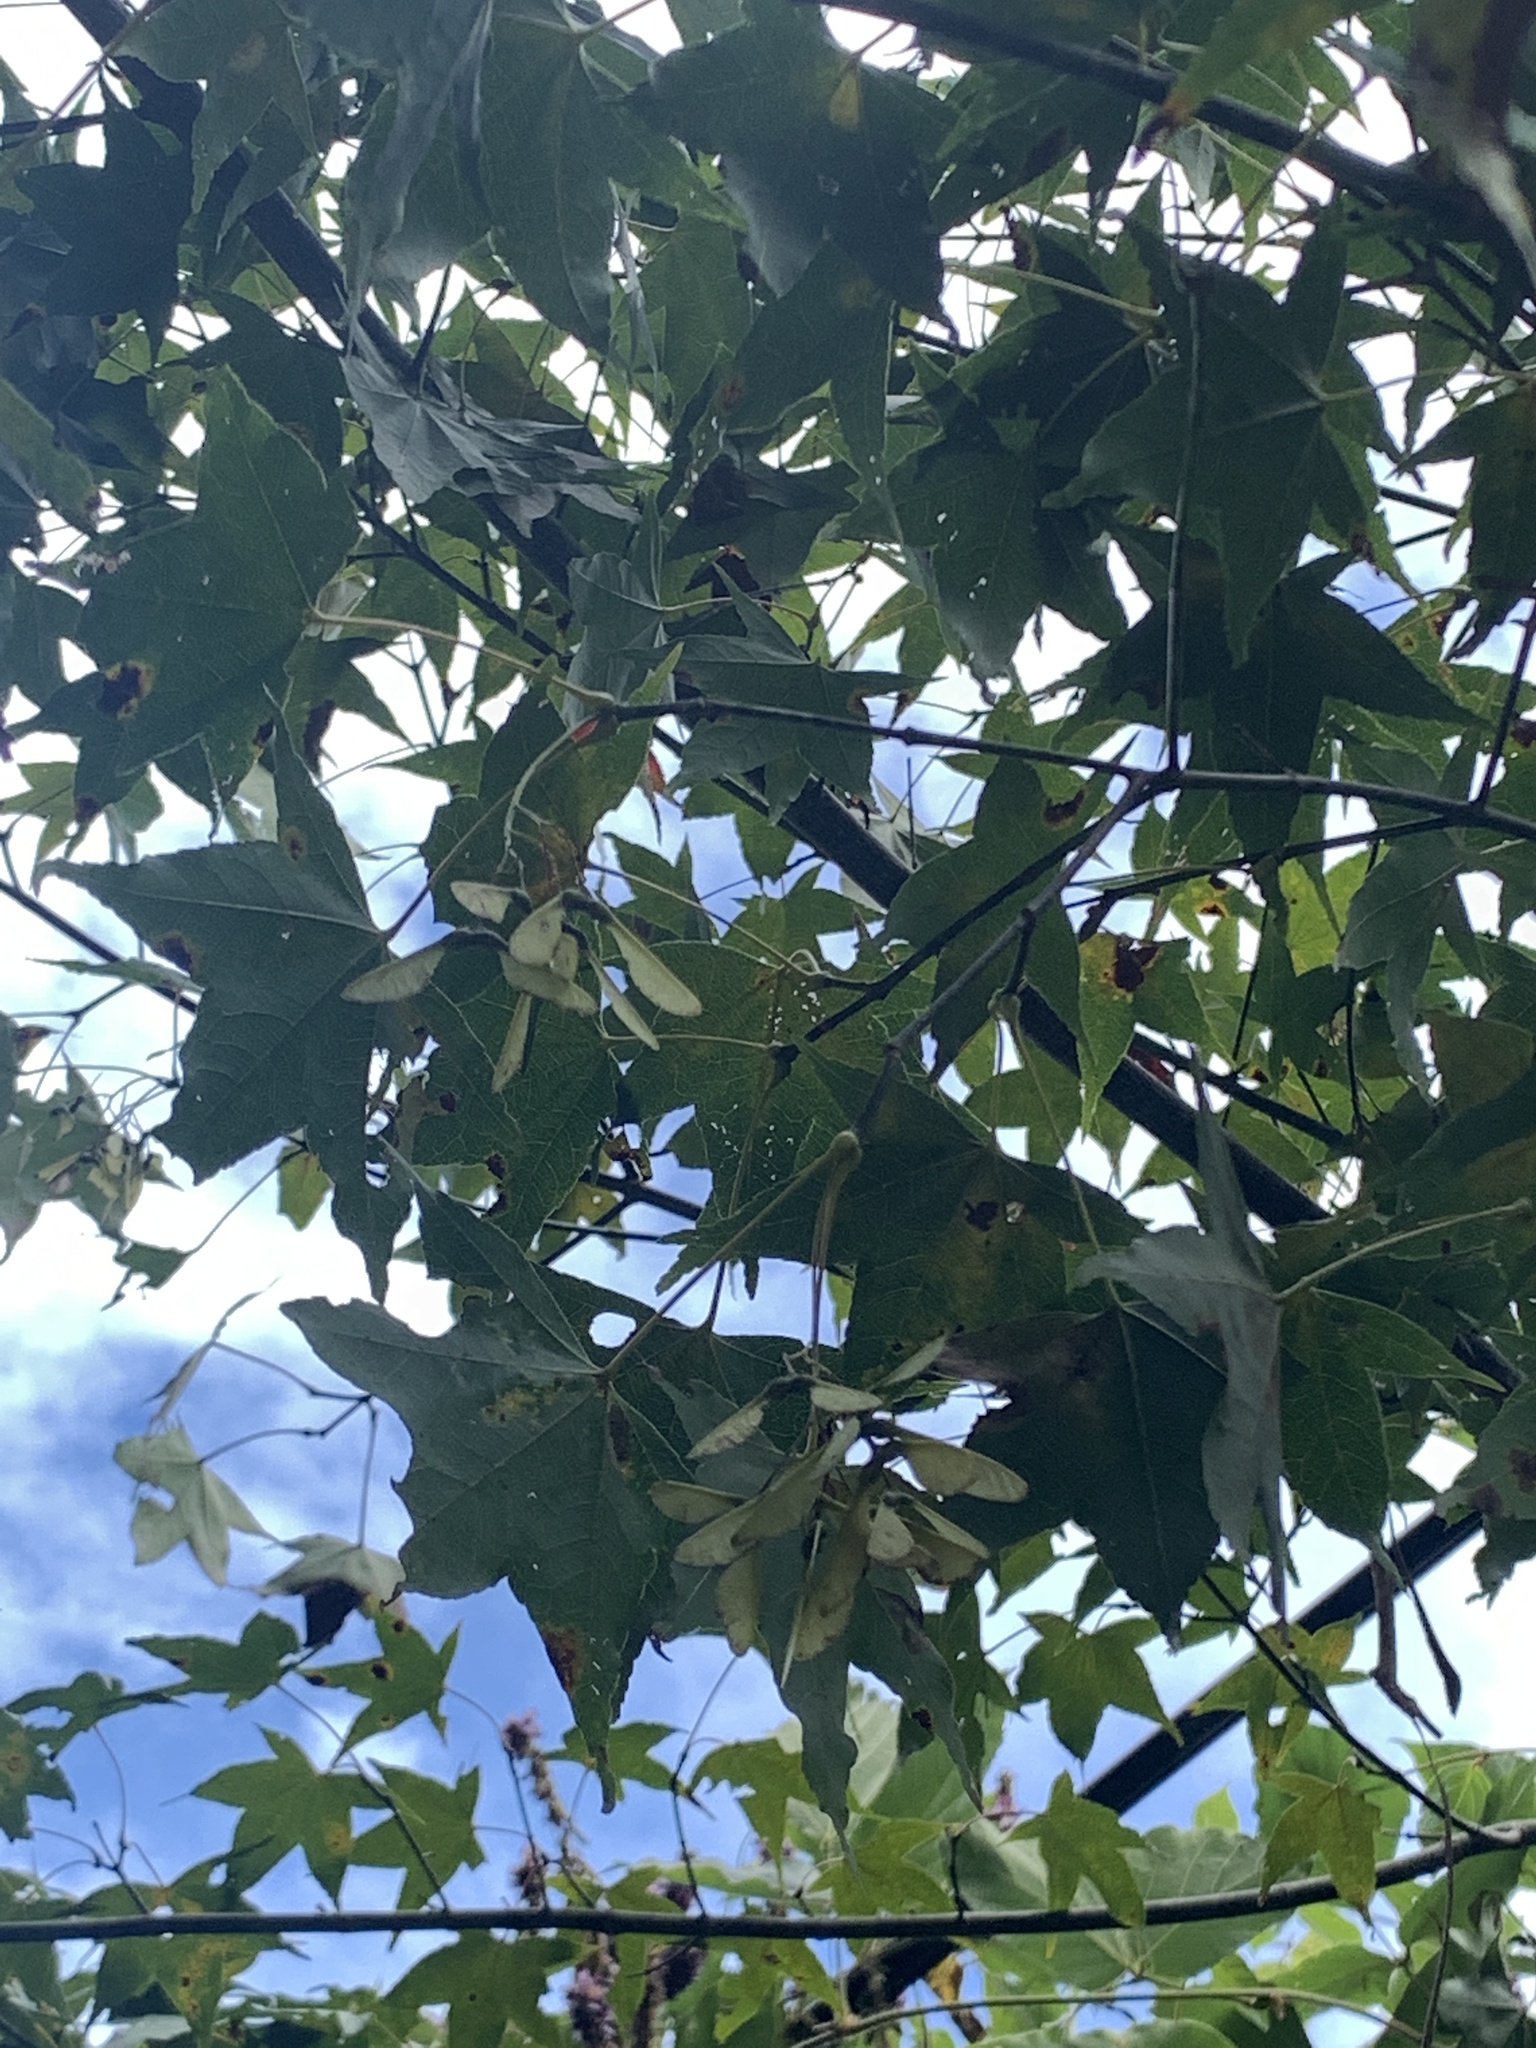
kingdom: Plantae
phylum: Tracheophyta
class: Magnoliopsida
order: Sapindales
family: Sapindaceae
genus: Acer
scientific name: Acer serrulatum
